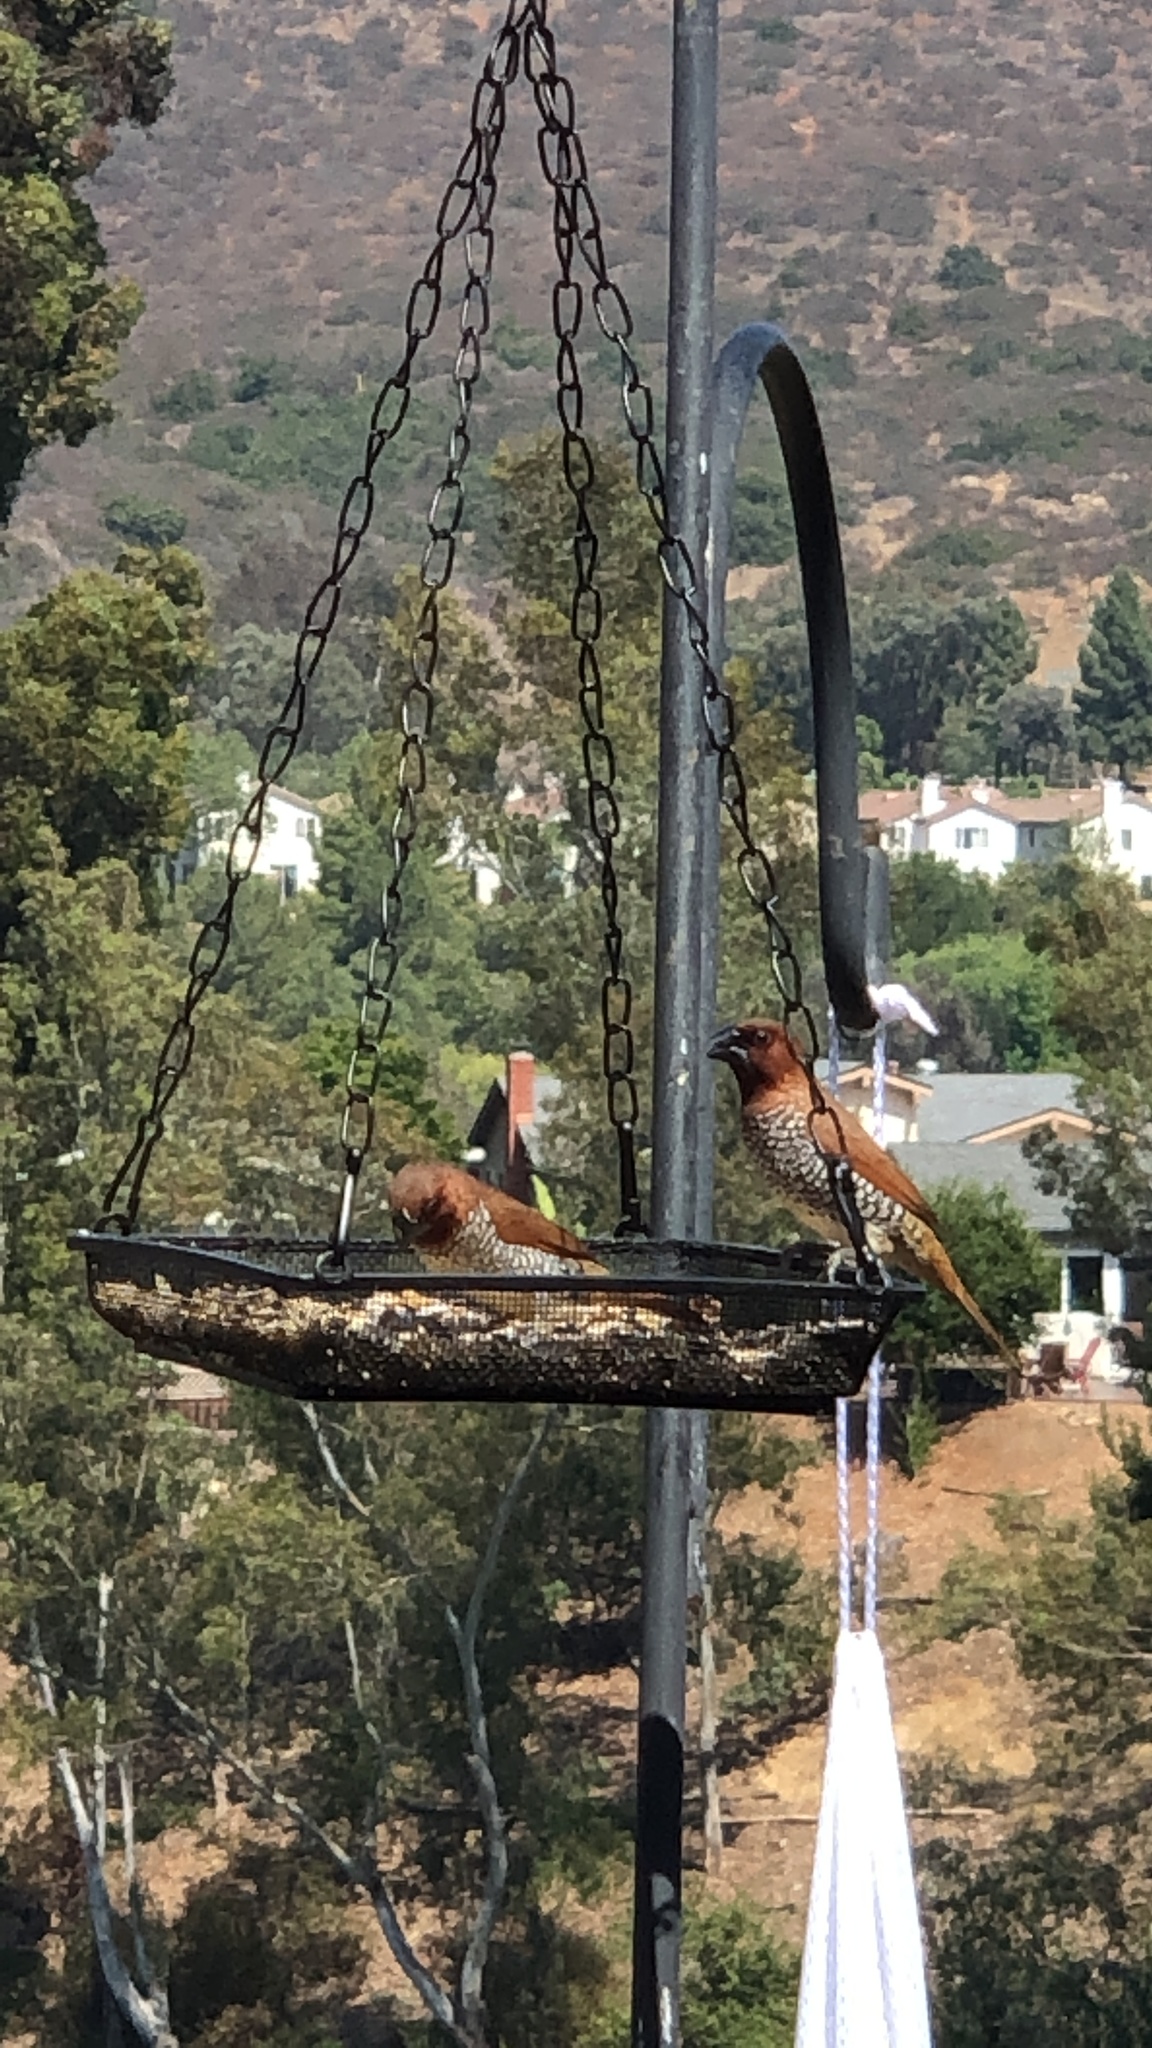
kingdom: Animalia
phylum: Chordata
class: Aves
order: Passeriformes
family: Estrildidae
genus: Lonchura
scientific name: Lonchura punctulata
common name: Scaly-breasted munia
